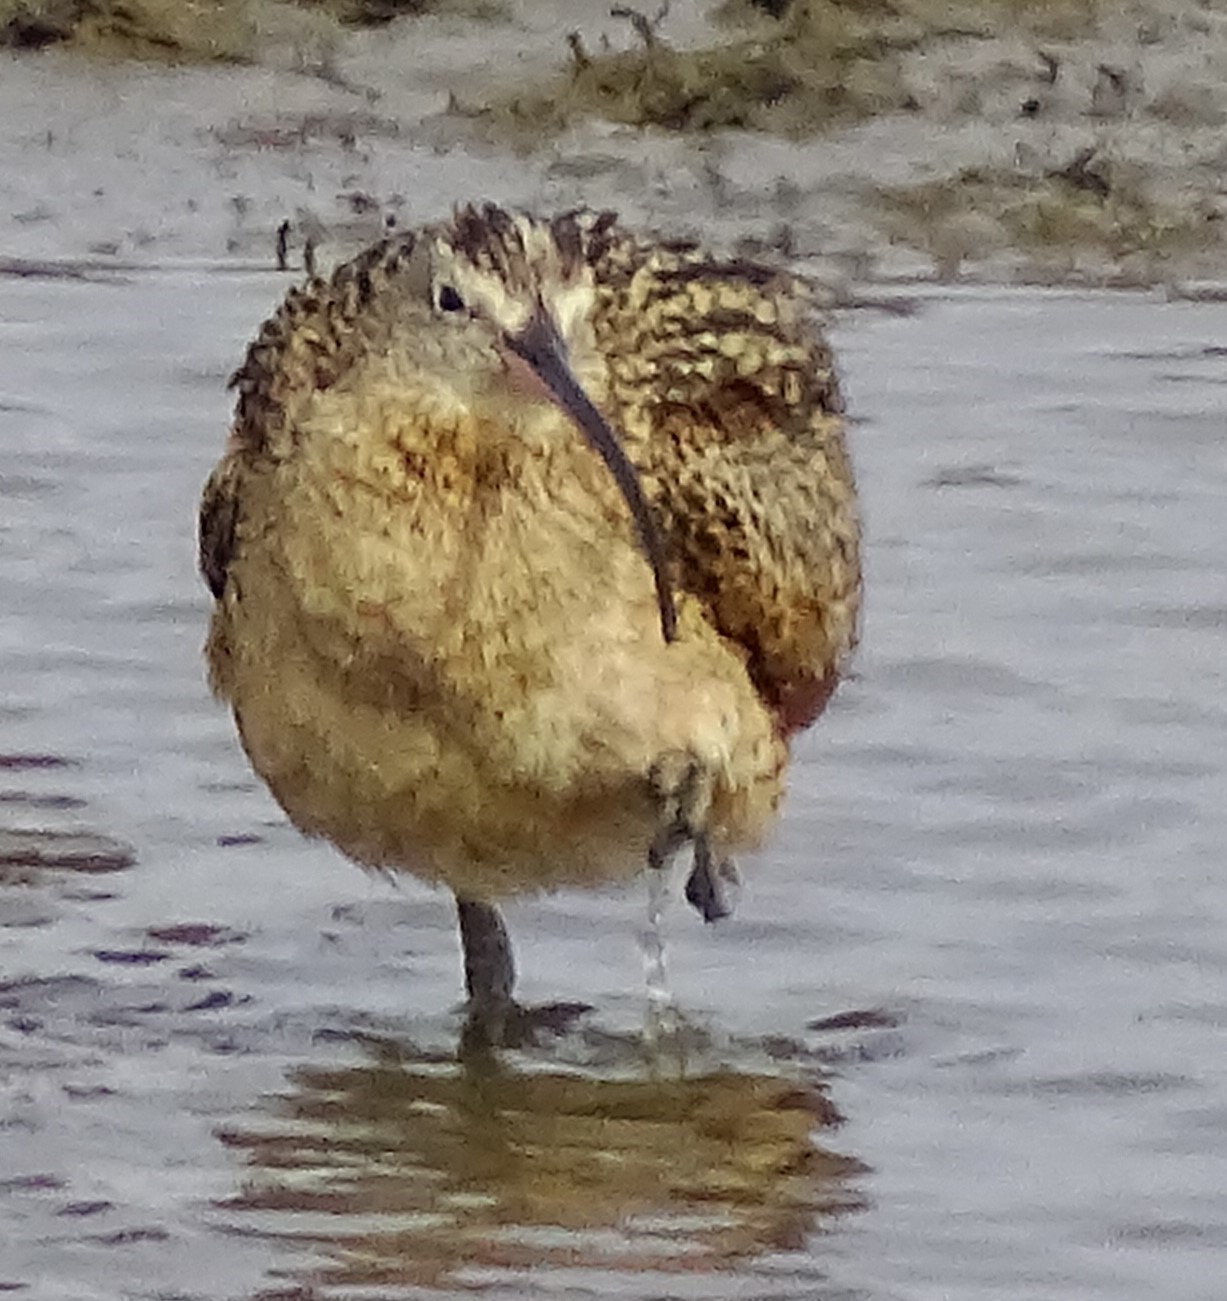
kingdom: Animalia
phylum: Chordata
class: Aves
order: Charadriiformes
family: Scolopacidae
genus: Numenius
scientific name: Numenius americanus
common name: Long-billed curlew
